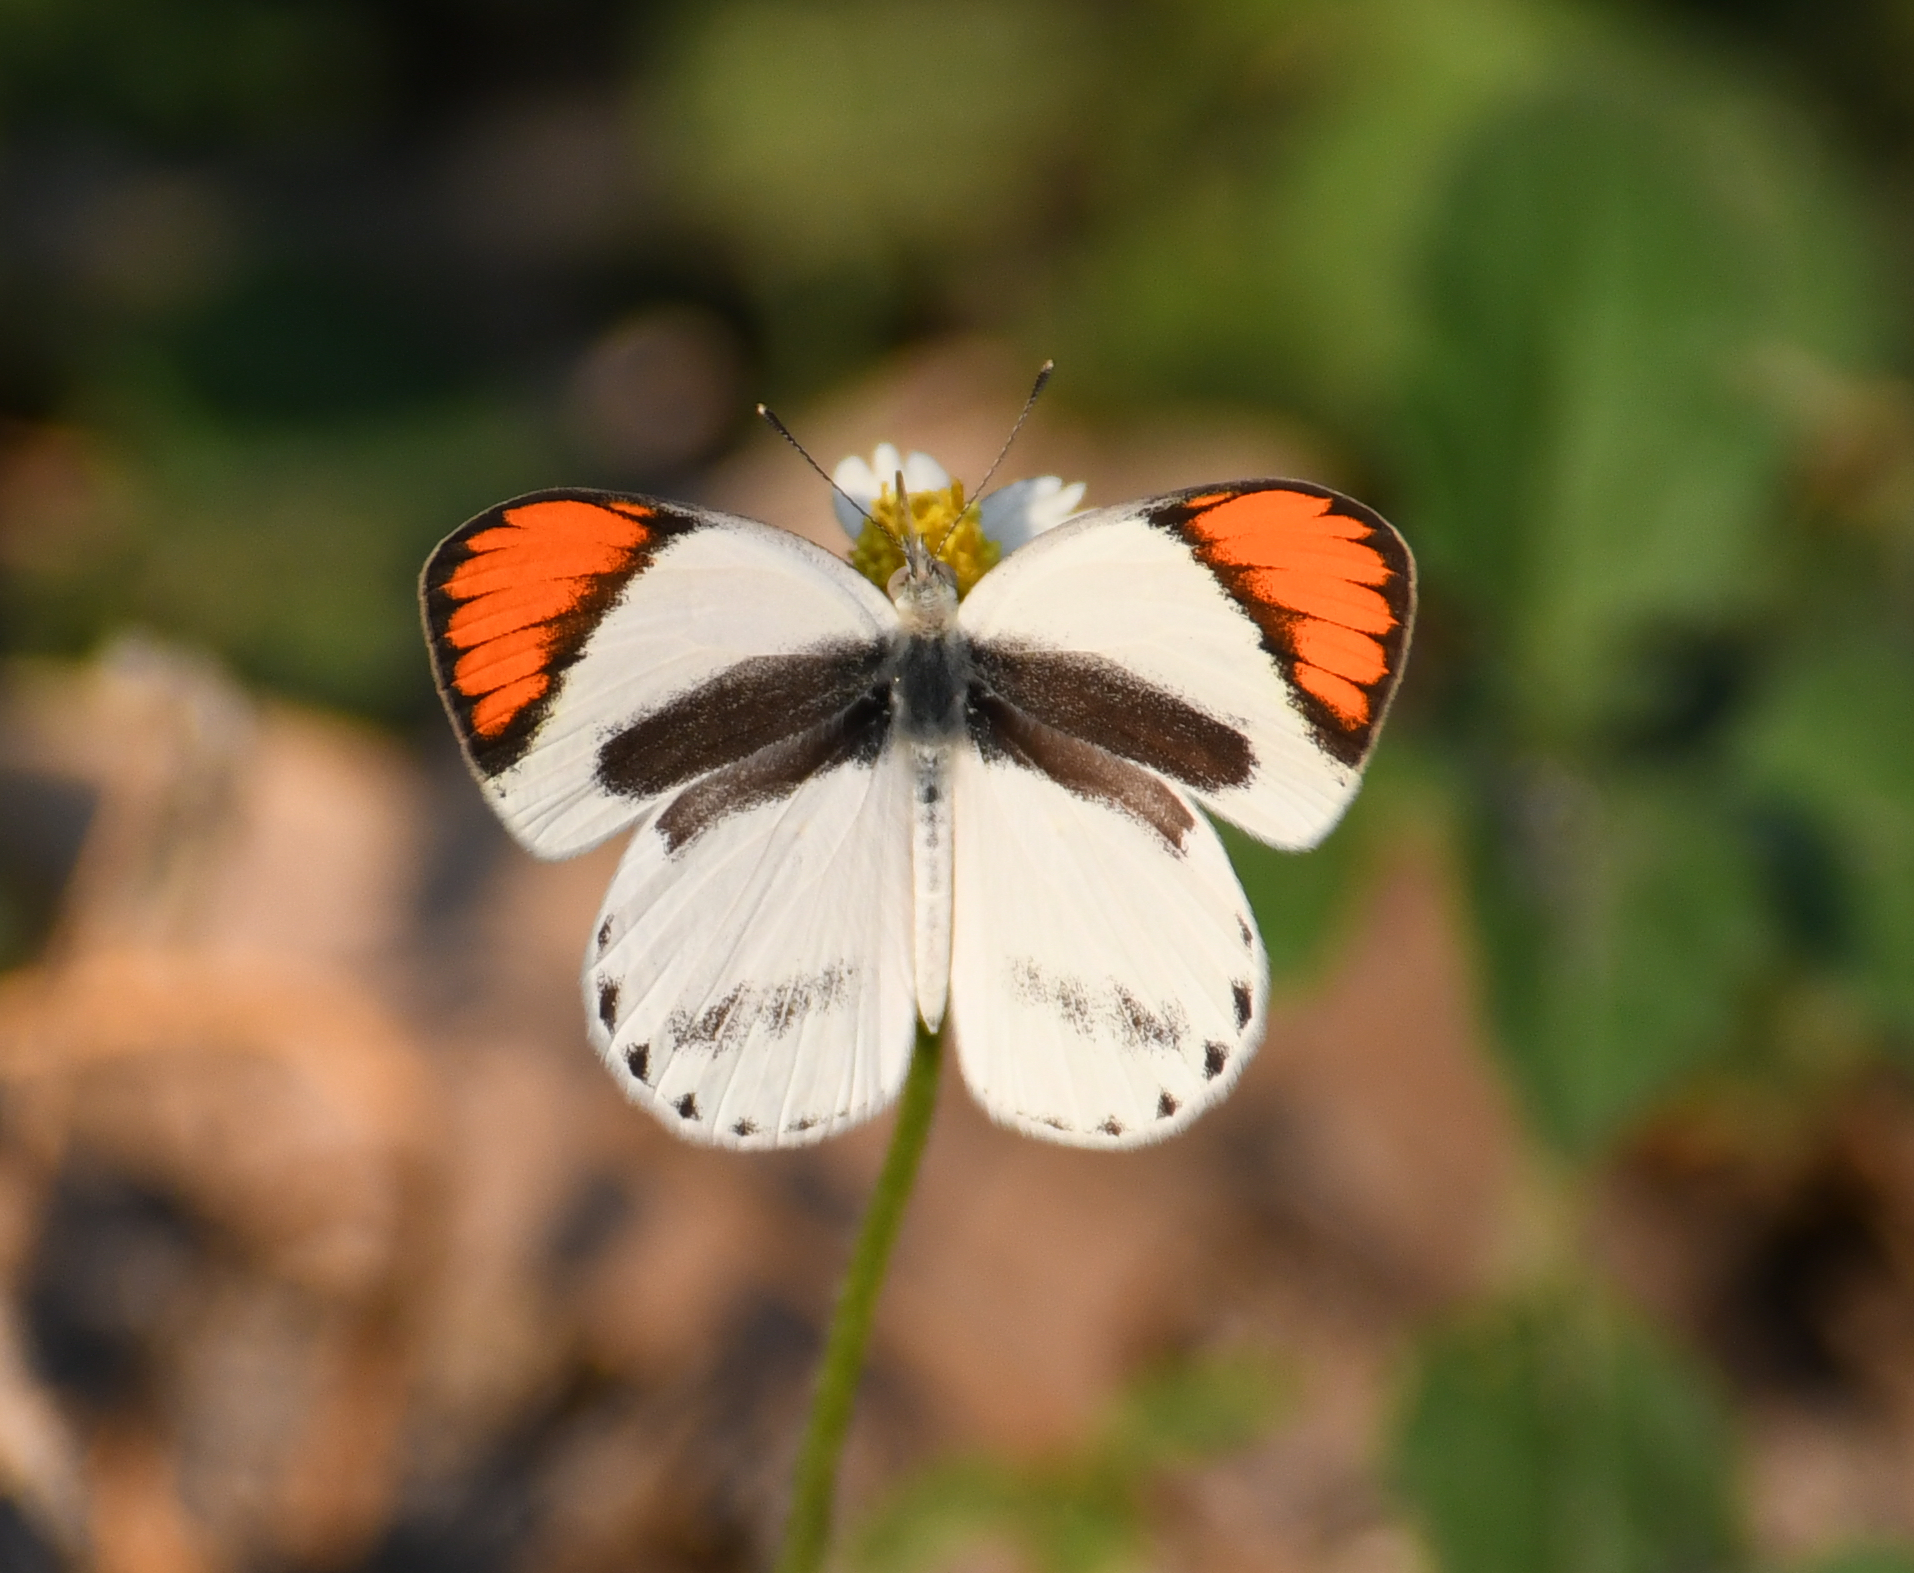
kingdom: Animalia
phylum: Arthropoda
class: Insecta
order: Lepidoptera
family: Pieridae
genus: Colotis
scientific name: Colotis euippe
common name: Round-winged orange tip
